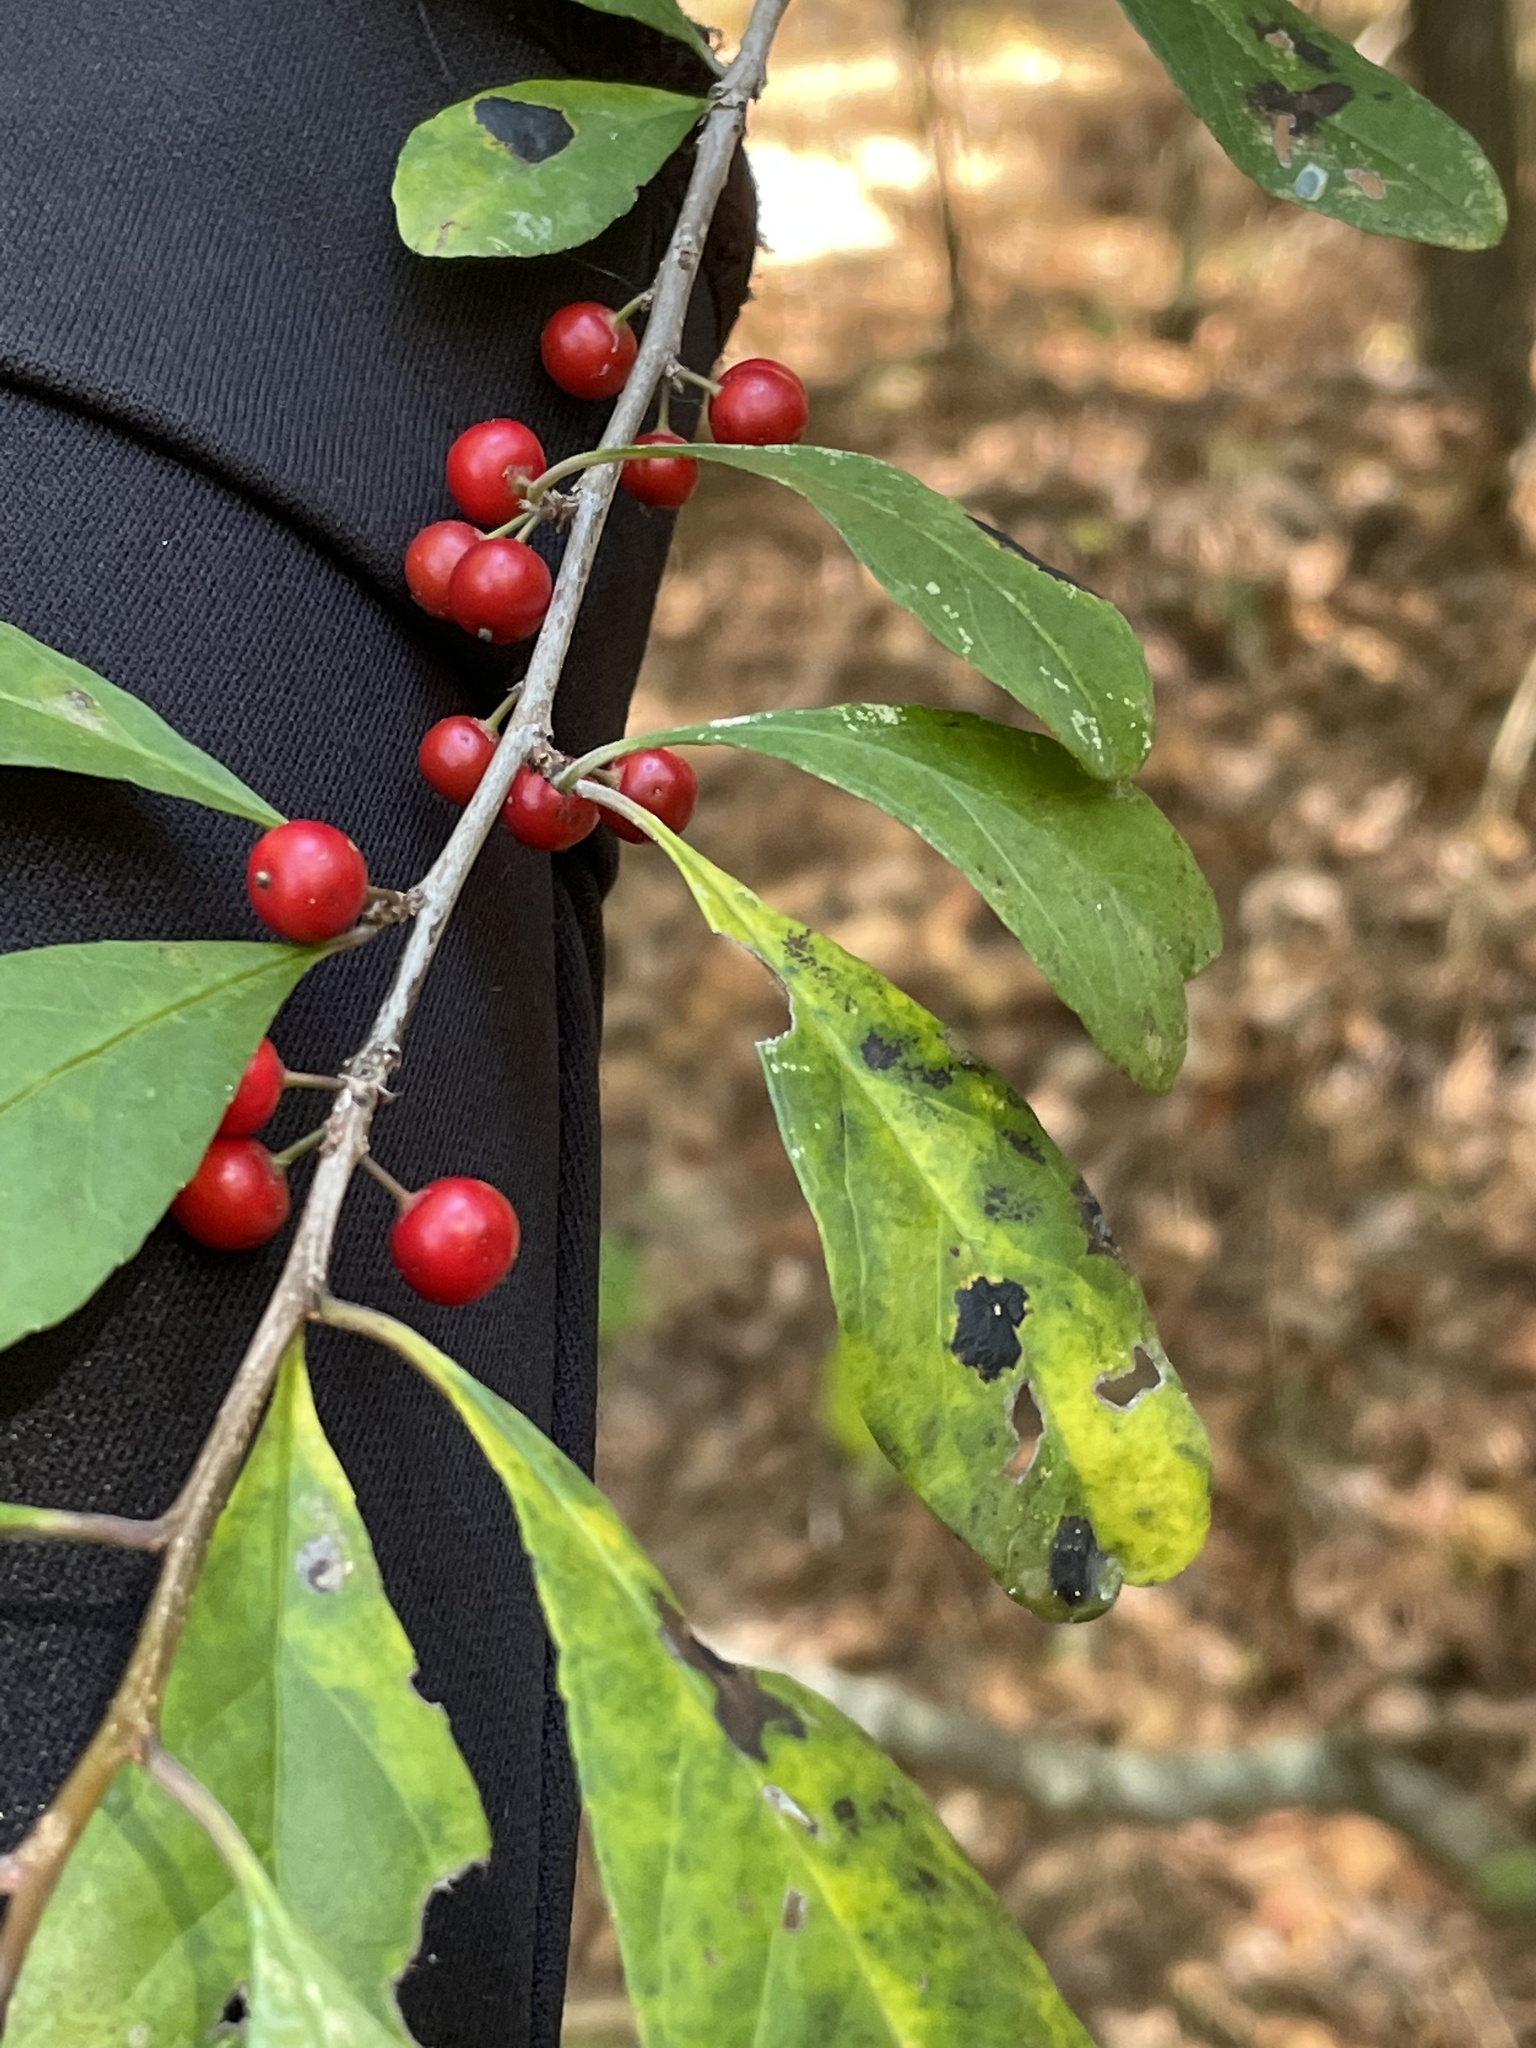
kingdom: Plantae
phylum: Tracheophyta
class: Magnoliopsida
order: Aquifoliales
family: Aquifoliaceae
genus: Ilex
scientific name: Ilex decidua
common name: Possum-haw
